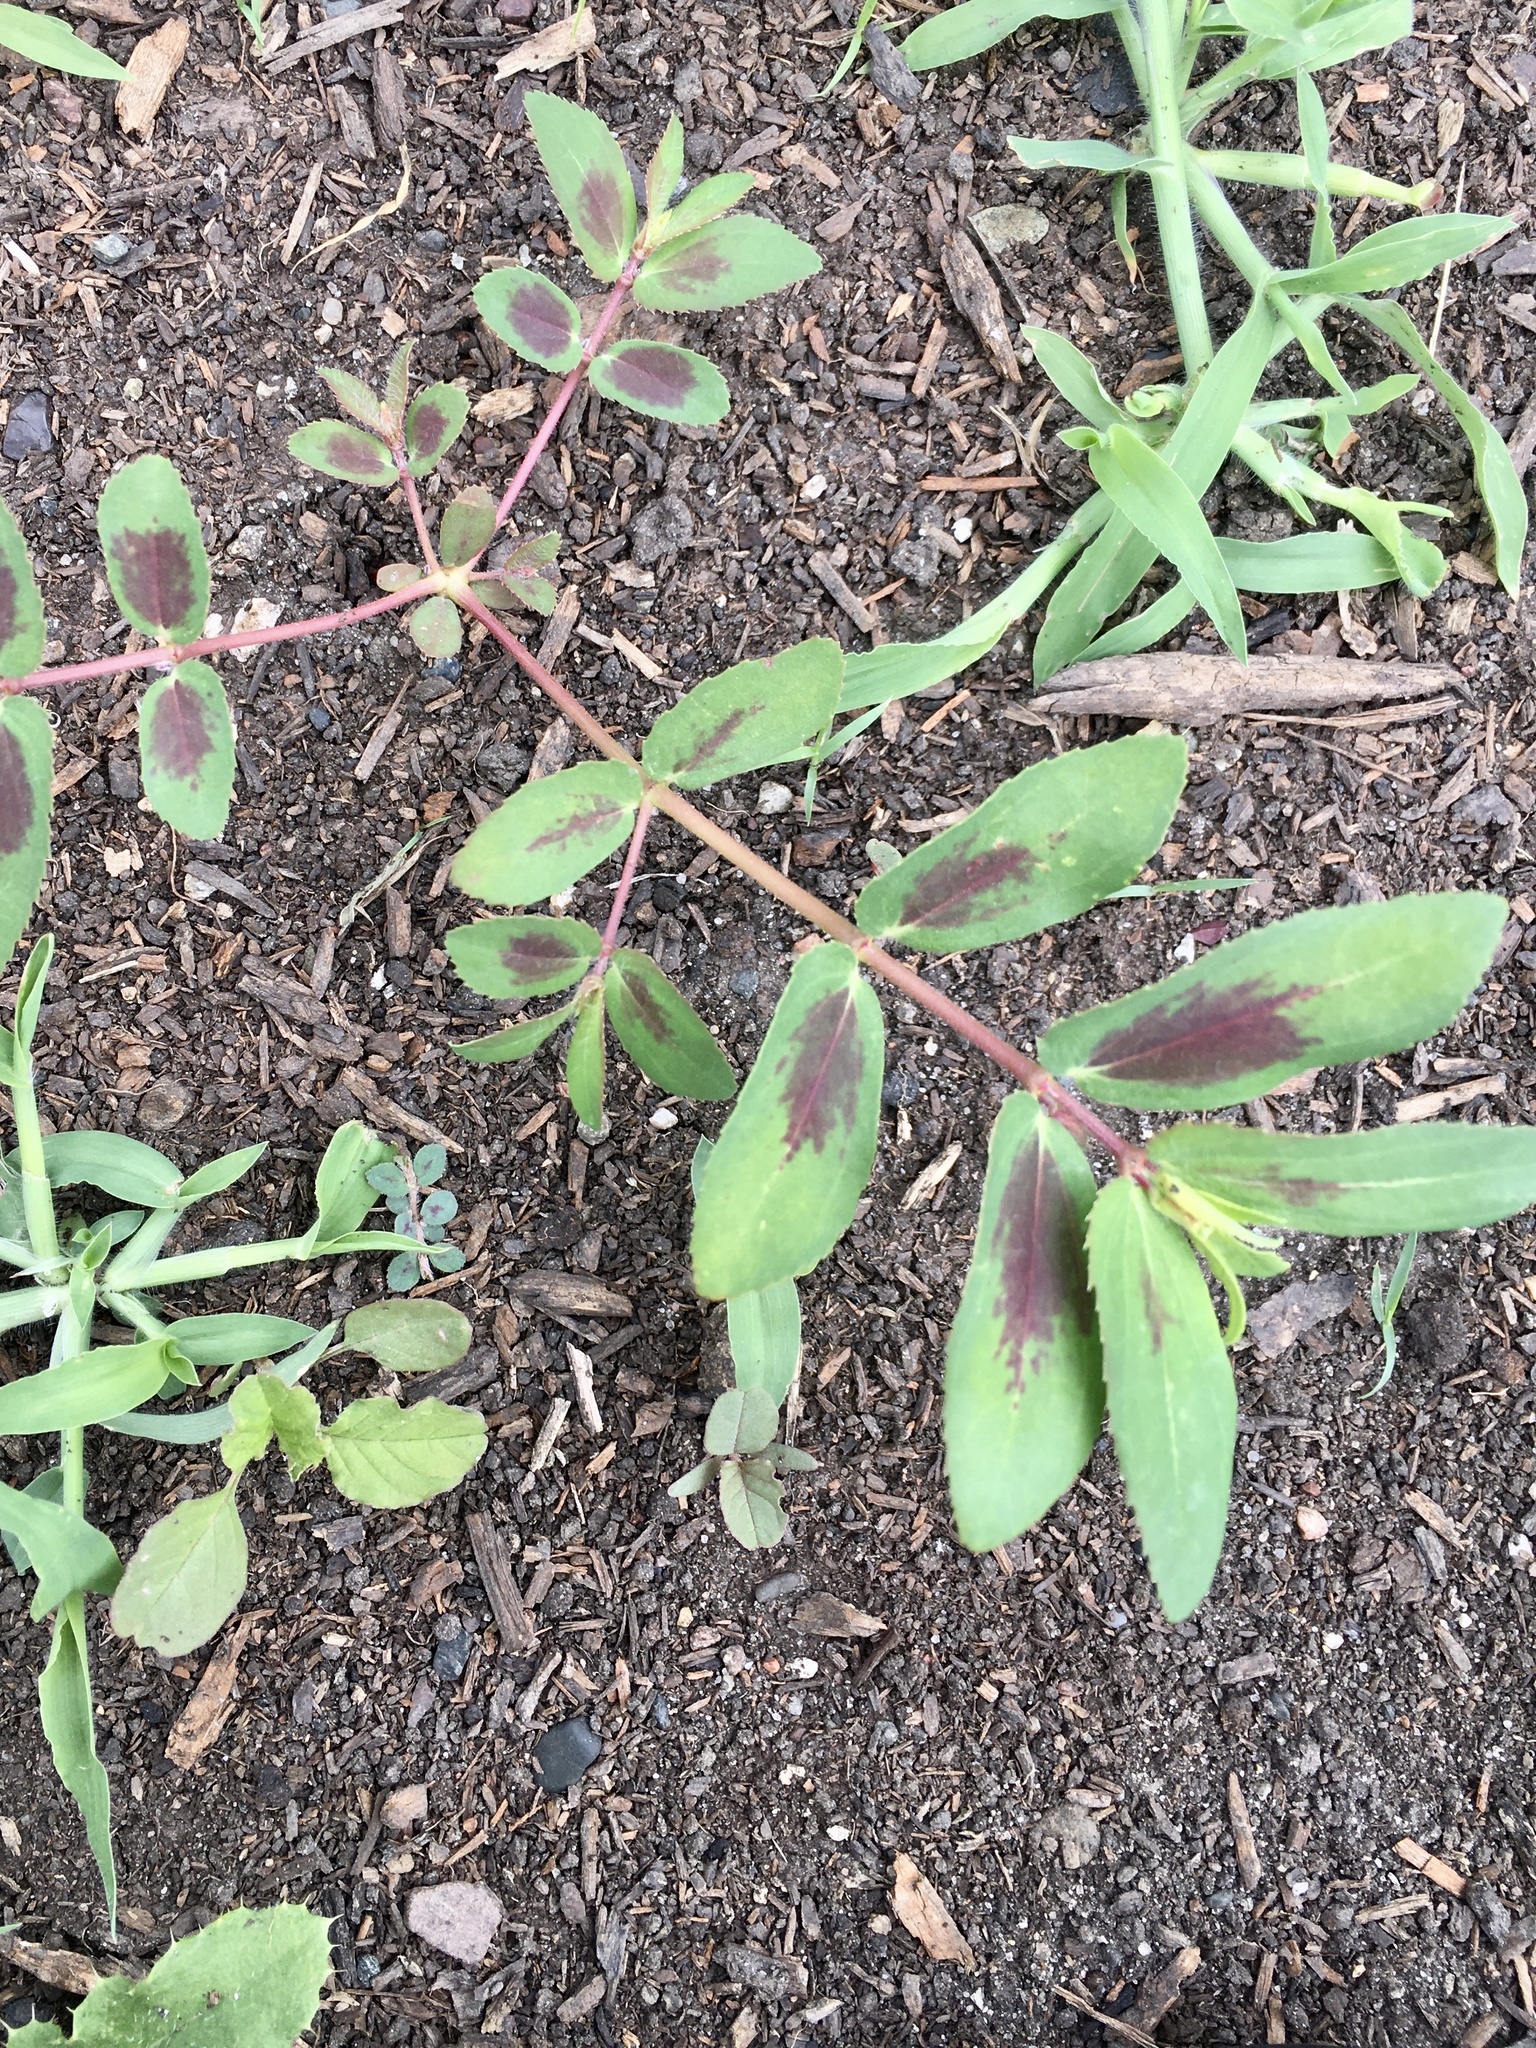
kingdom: Plantae
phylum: Tracheophyta
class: Magnoliopsida
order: Malpighiales
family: Euphorbiaceae
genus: Euphorbia
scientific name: Euphorbia nutans
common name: Eyebane
